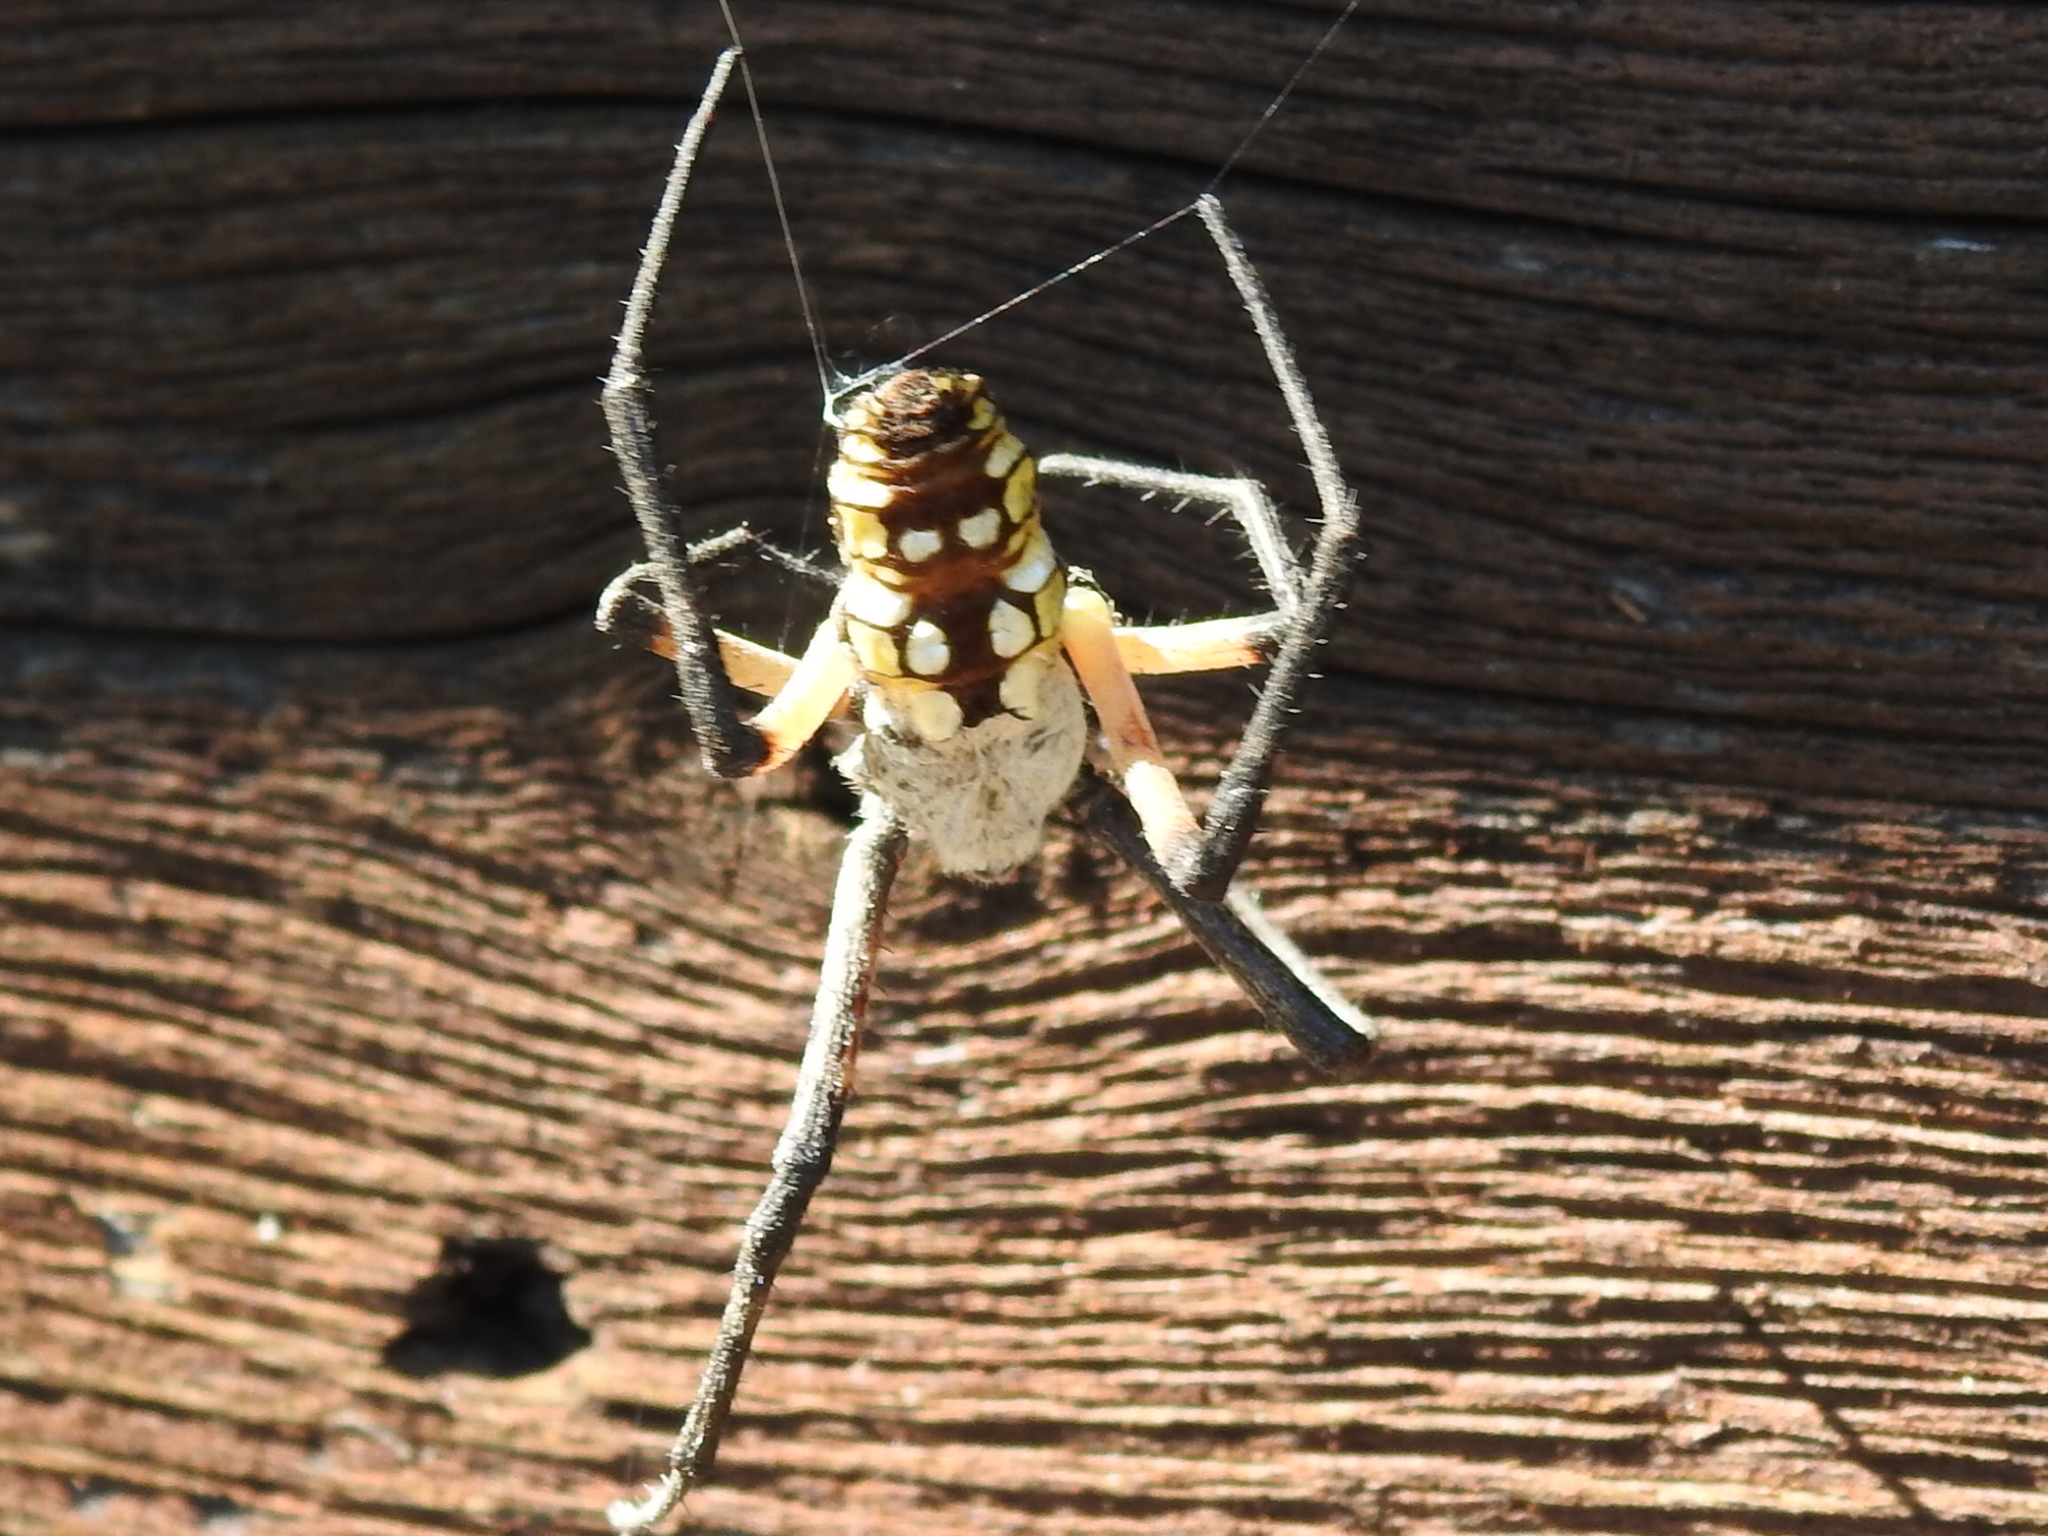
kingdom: Animalia
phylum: Arthropoda
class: Arachnida
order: Araneae
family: Araneidae
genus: Argiope
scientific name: Argiope aurantia
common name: Orb weavers
